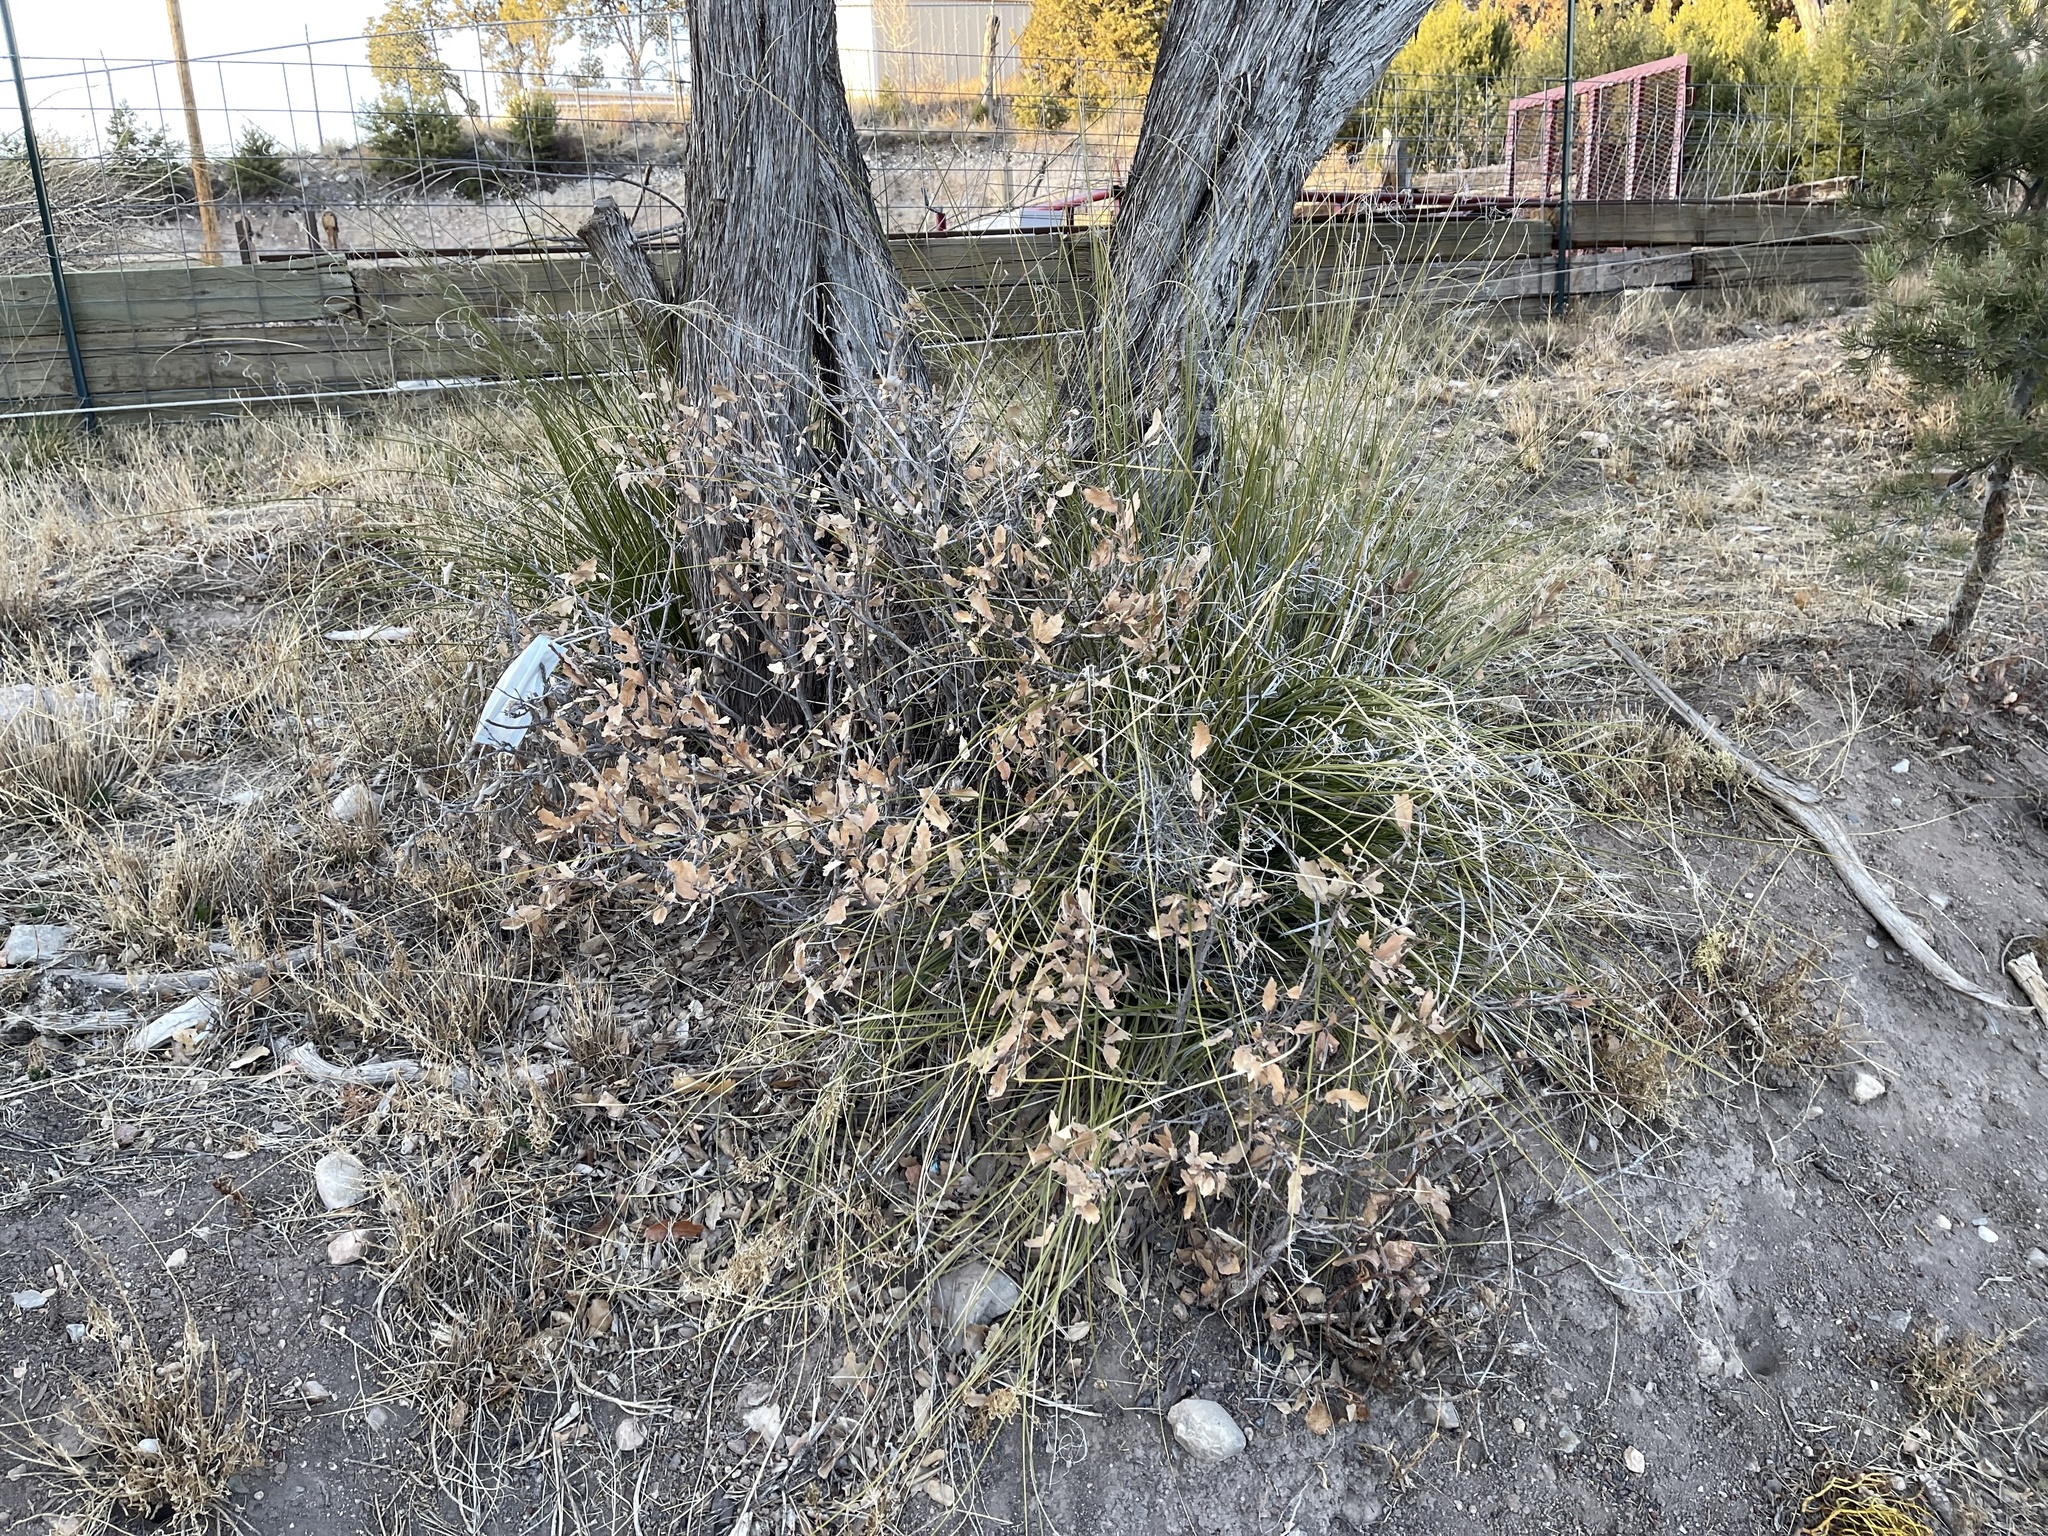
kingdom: Plantae
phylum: Tracheophyta
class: Magnoliopsida
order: Fagales
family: Fagaceae
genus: Quercus
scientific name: Quercus undulata
